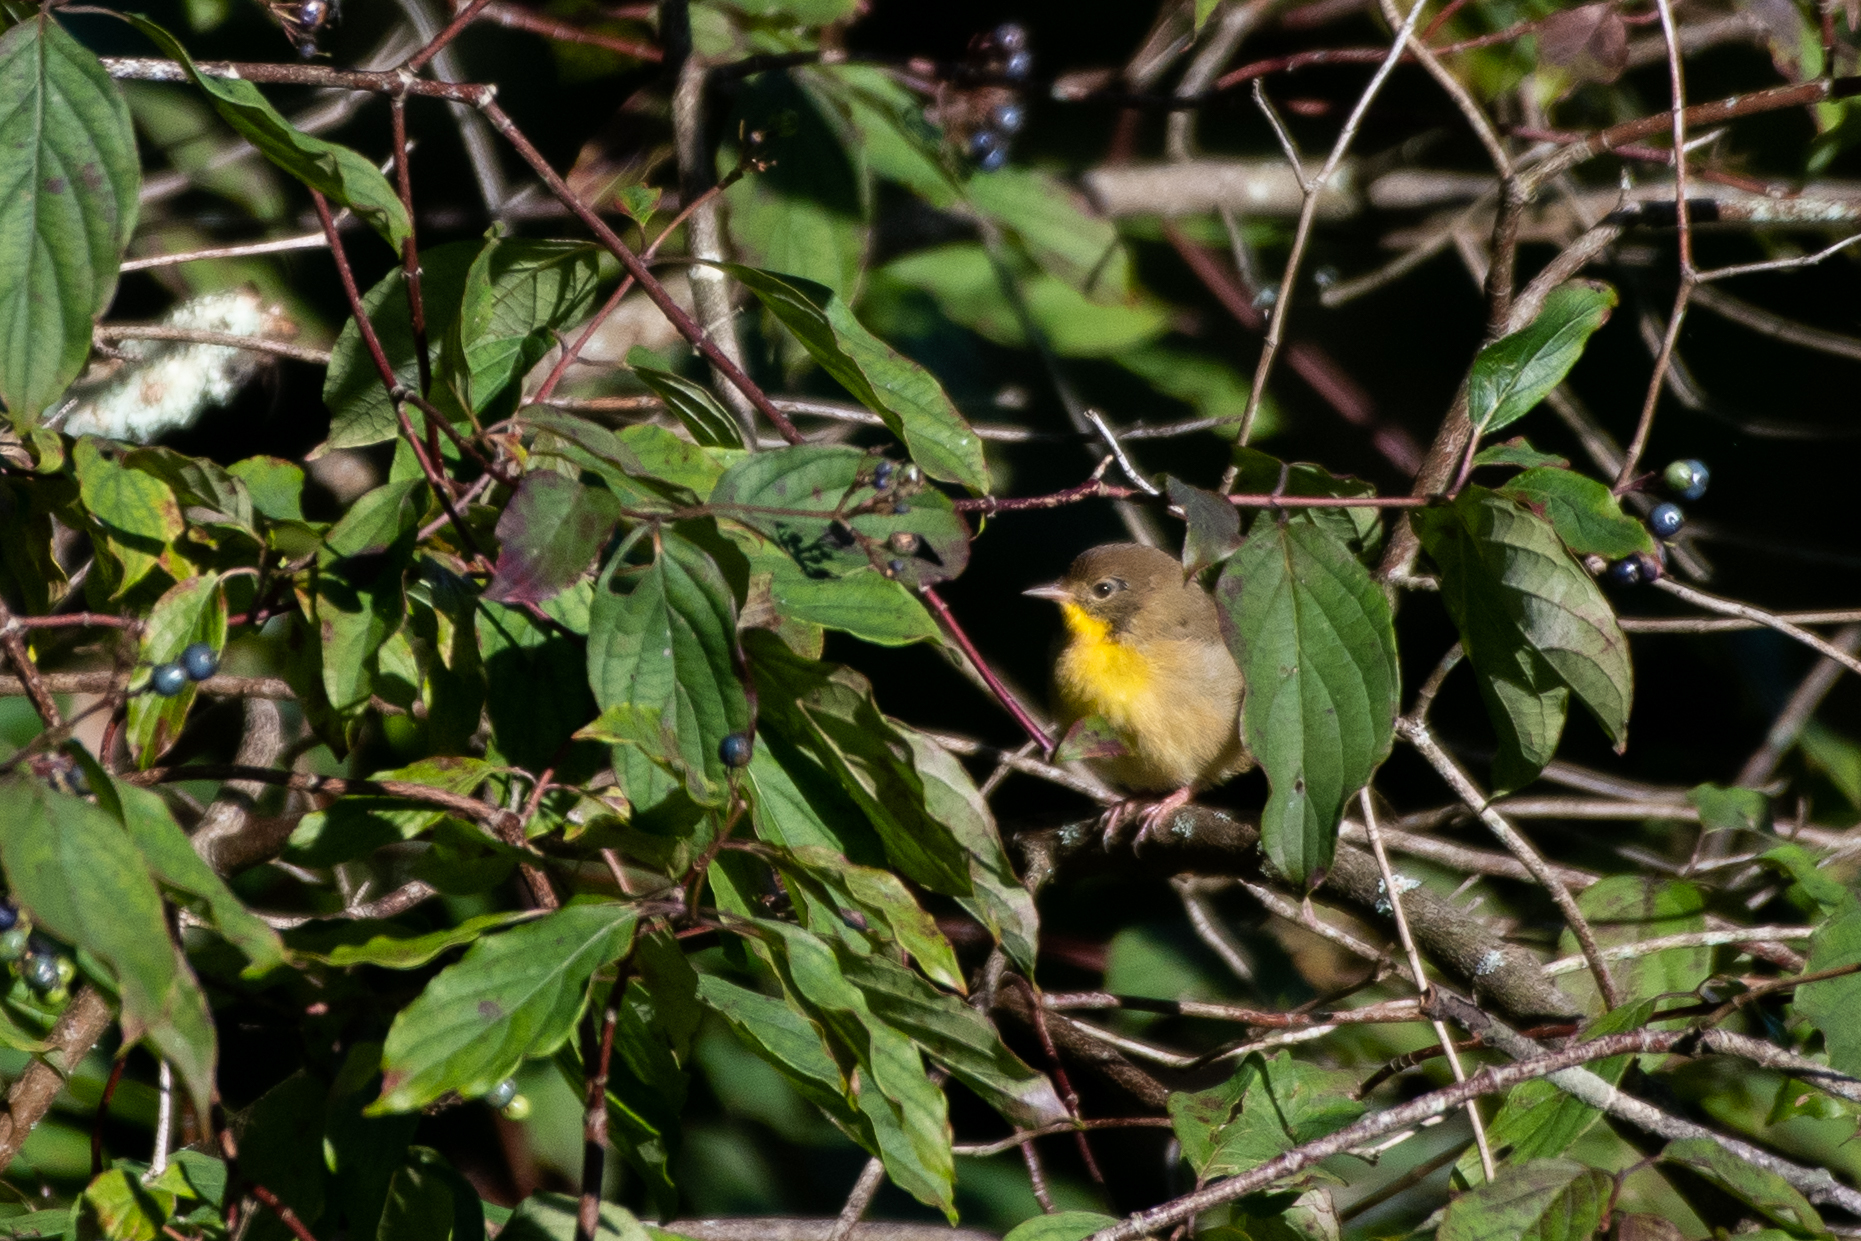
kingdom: Animalia
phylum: Chordata
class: Aves
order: Passeriformes
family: Parulidae
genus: Geothlypis
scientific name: Geothlypis trichas
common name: Common yellowthroat
